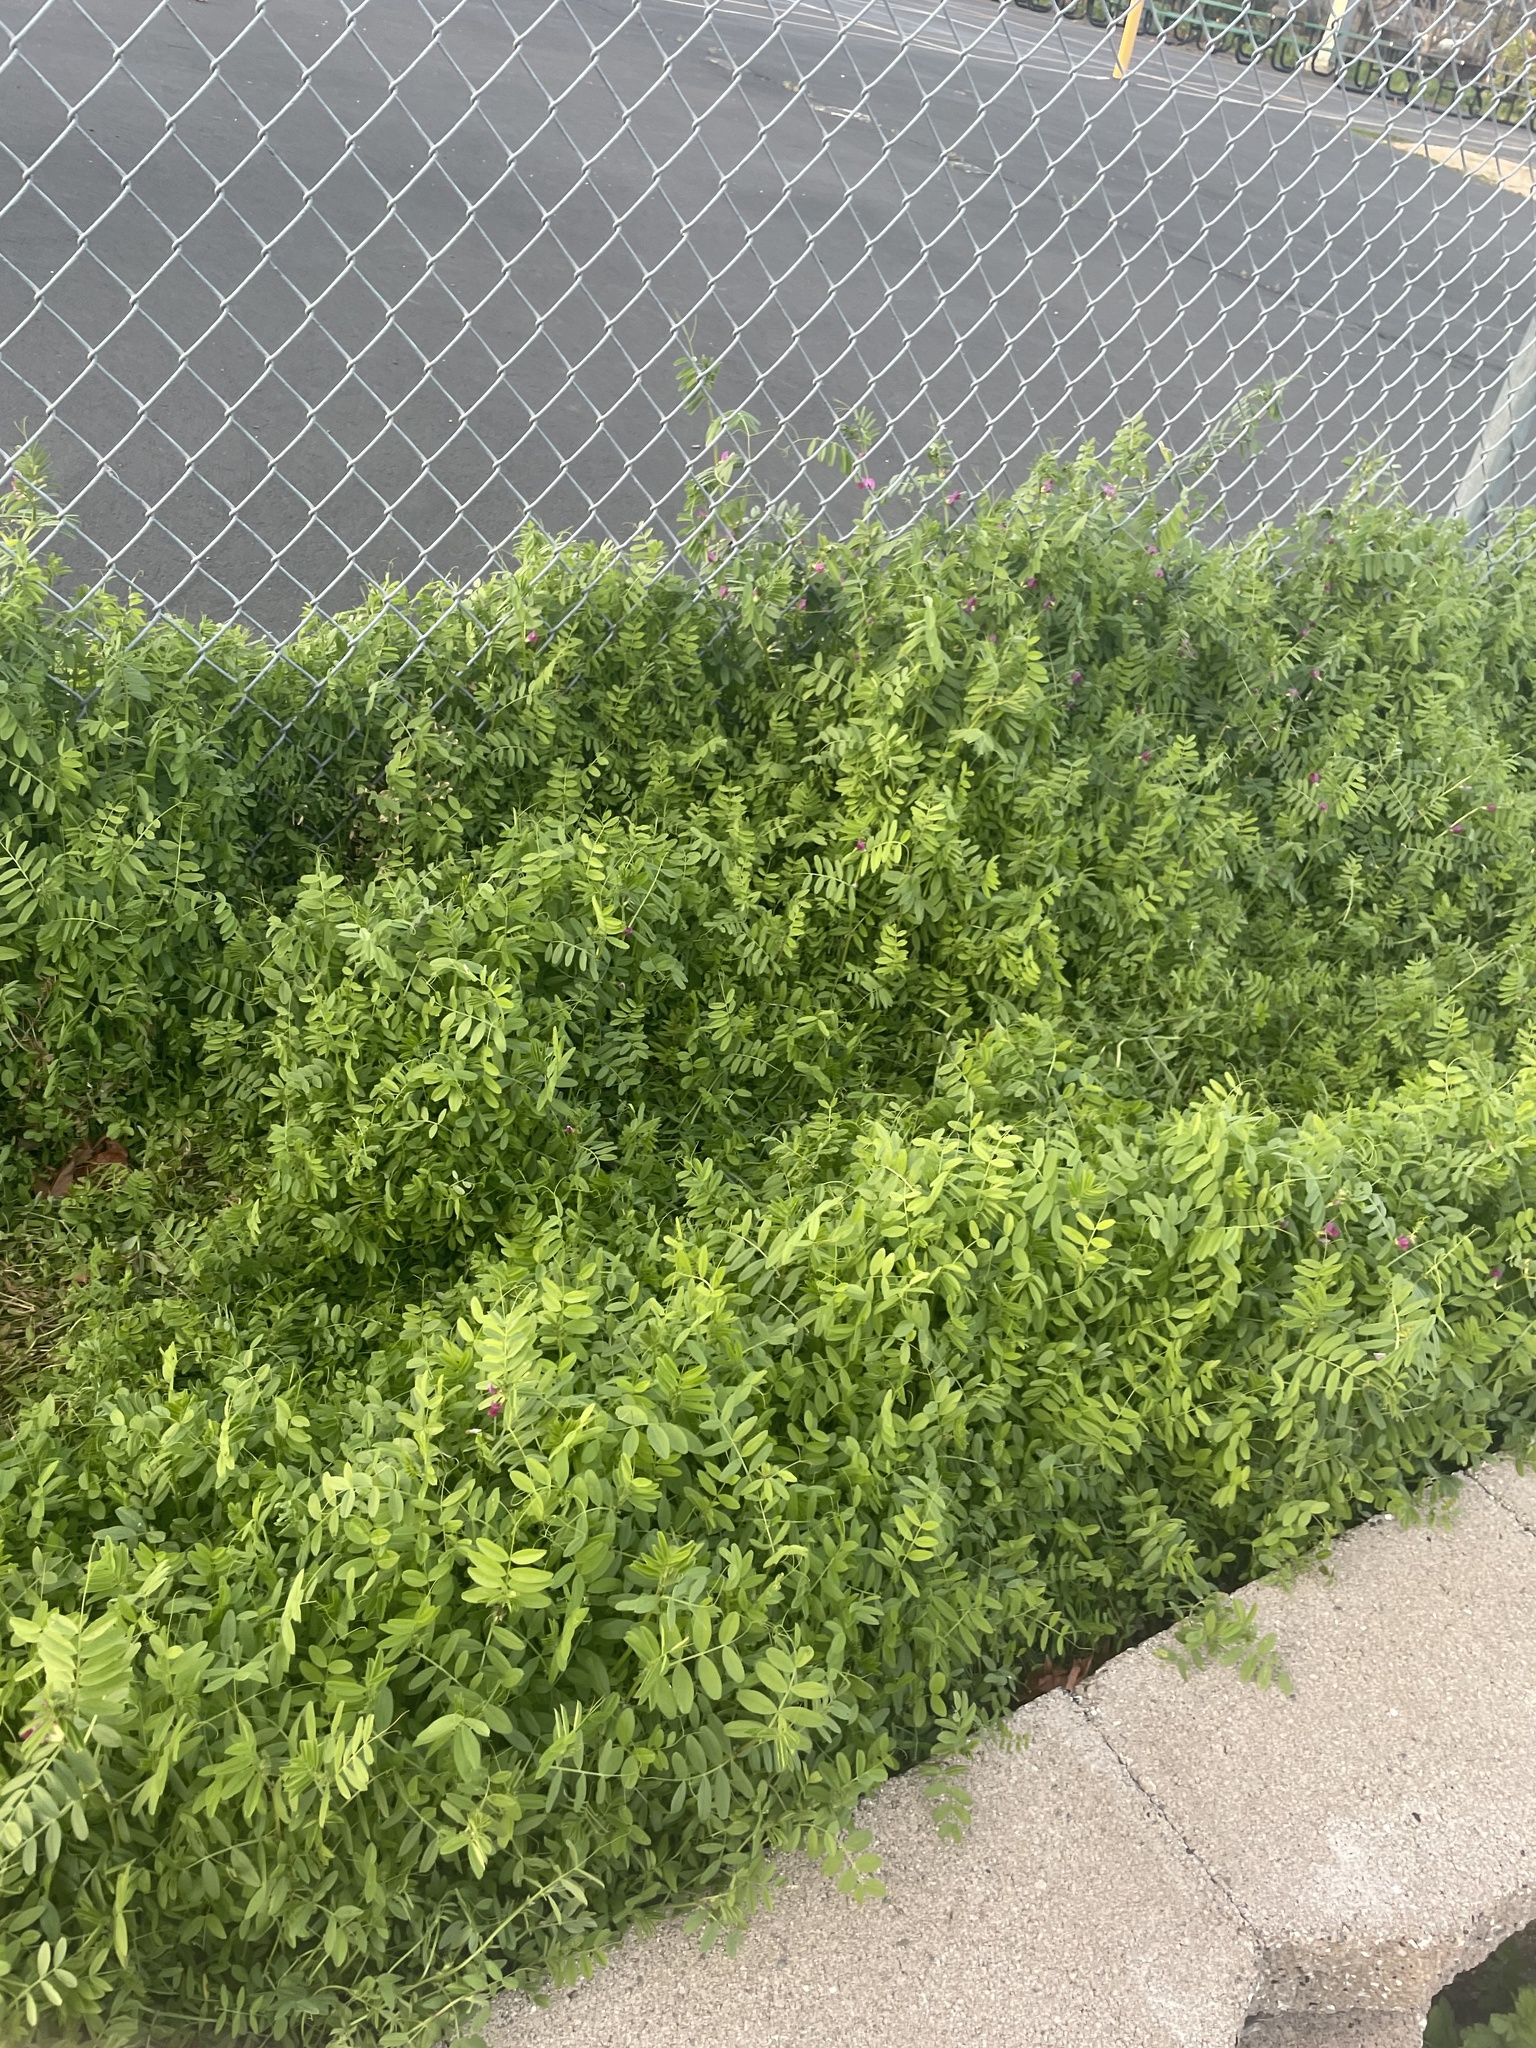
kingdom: Plantae
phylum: Tracheophyta
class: Magnoliopsida
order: Fabales
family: Fabaceae
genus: Vicia
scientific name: Vicia sativa
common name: Garden vetch
